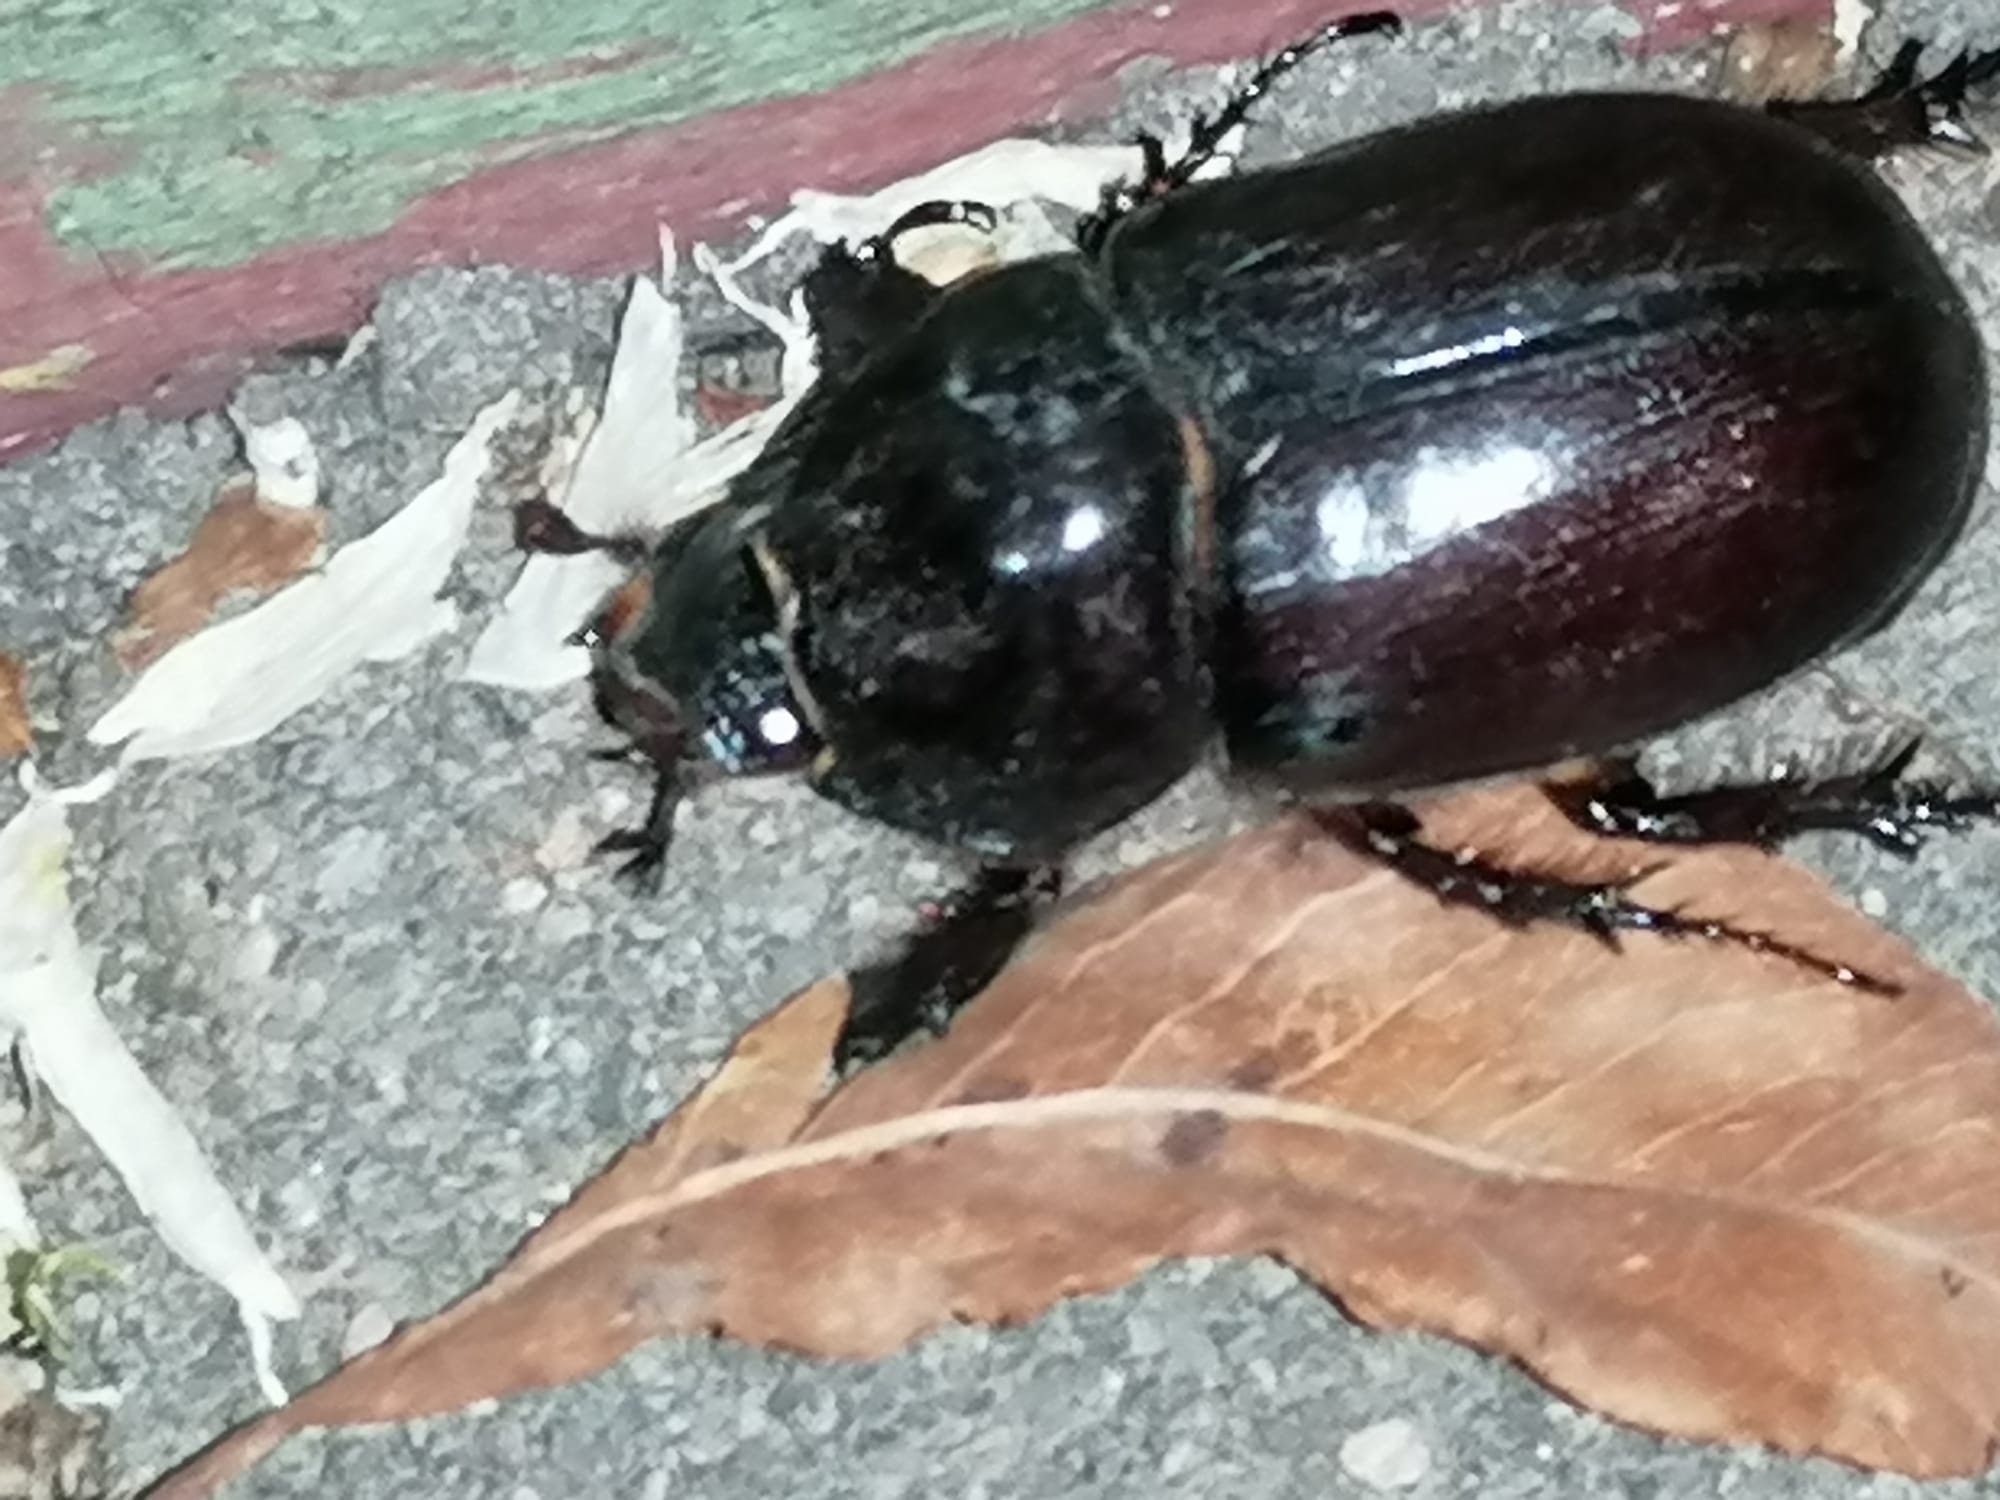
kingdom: Animalia
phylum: Arthropoda
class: Insecta
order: Coleoptera
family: Scarabaeidae
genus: Oryctes
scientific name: Oryctes nasicornis
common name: European rhinoceros beetle
